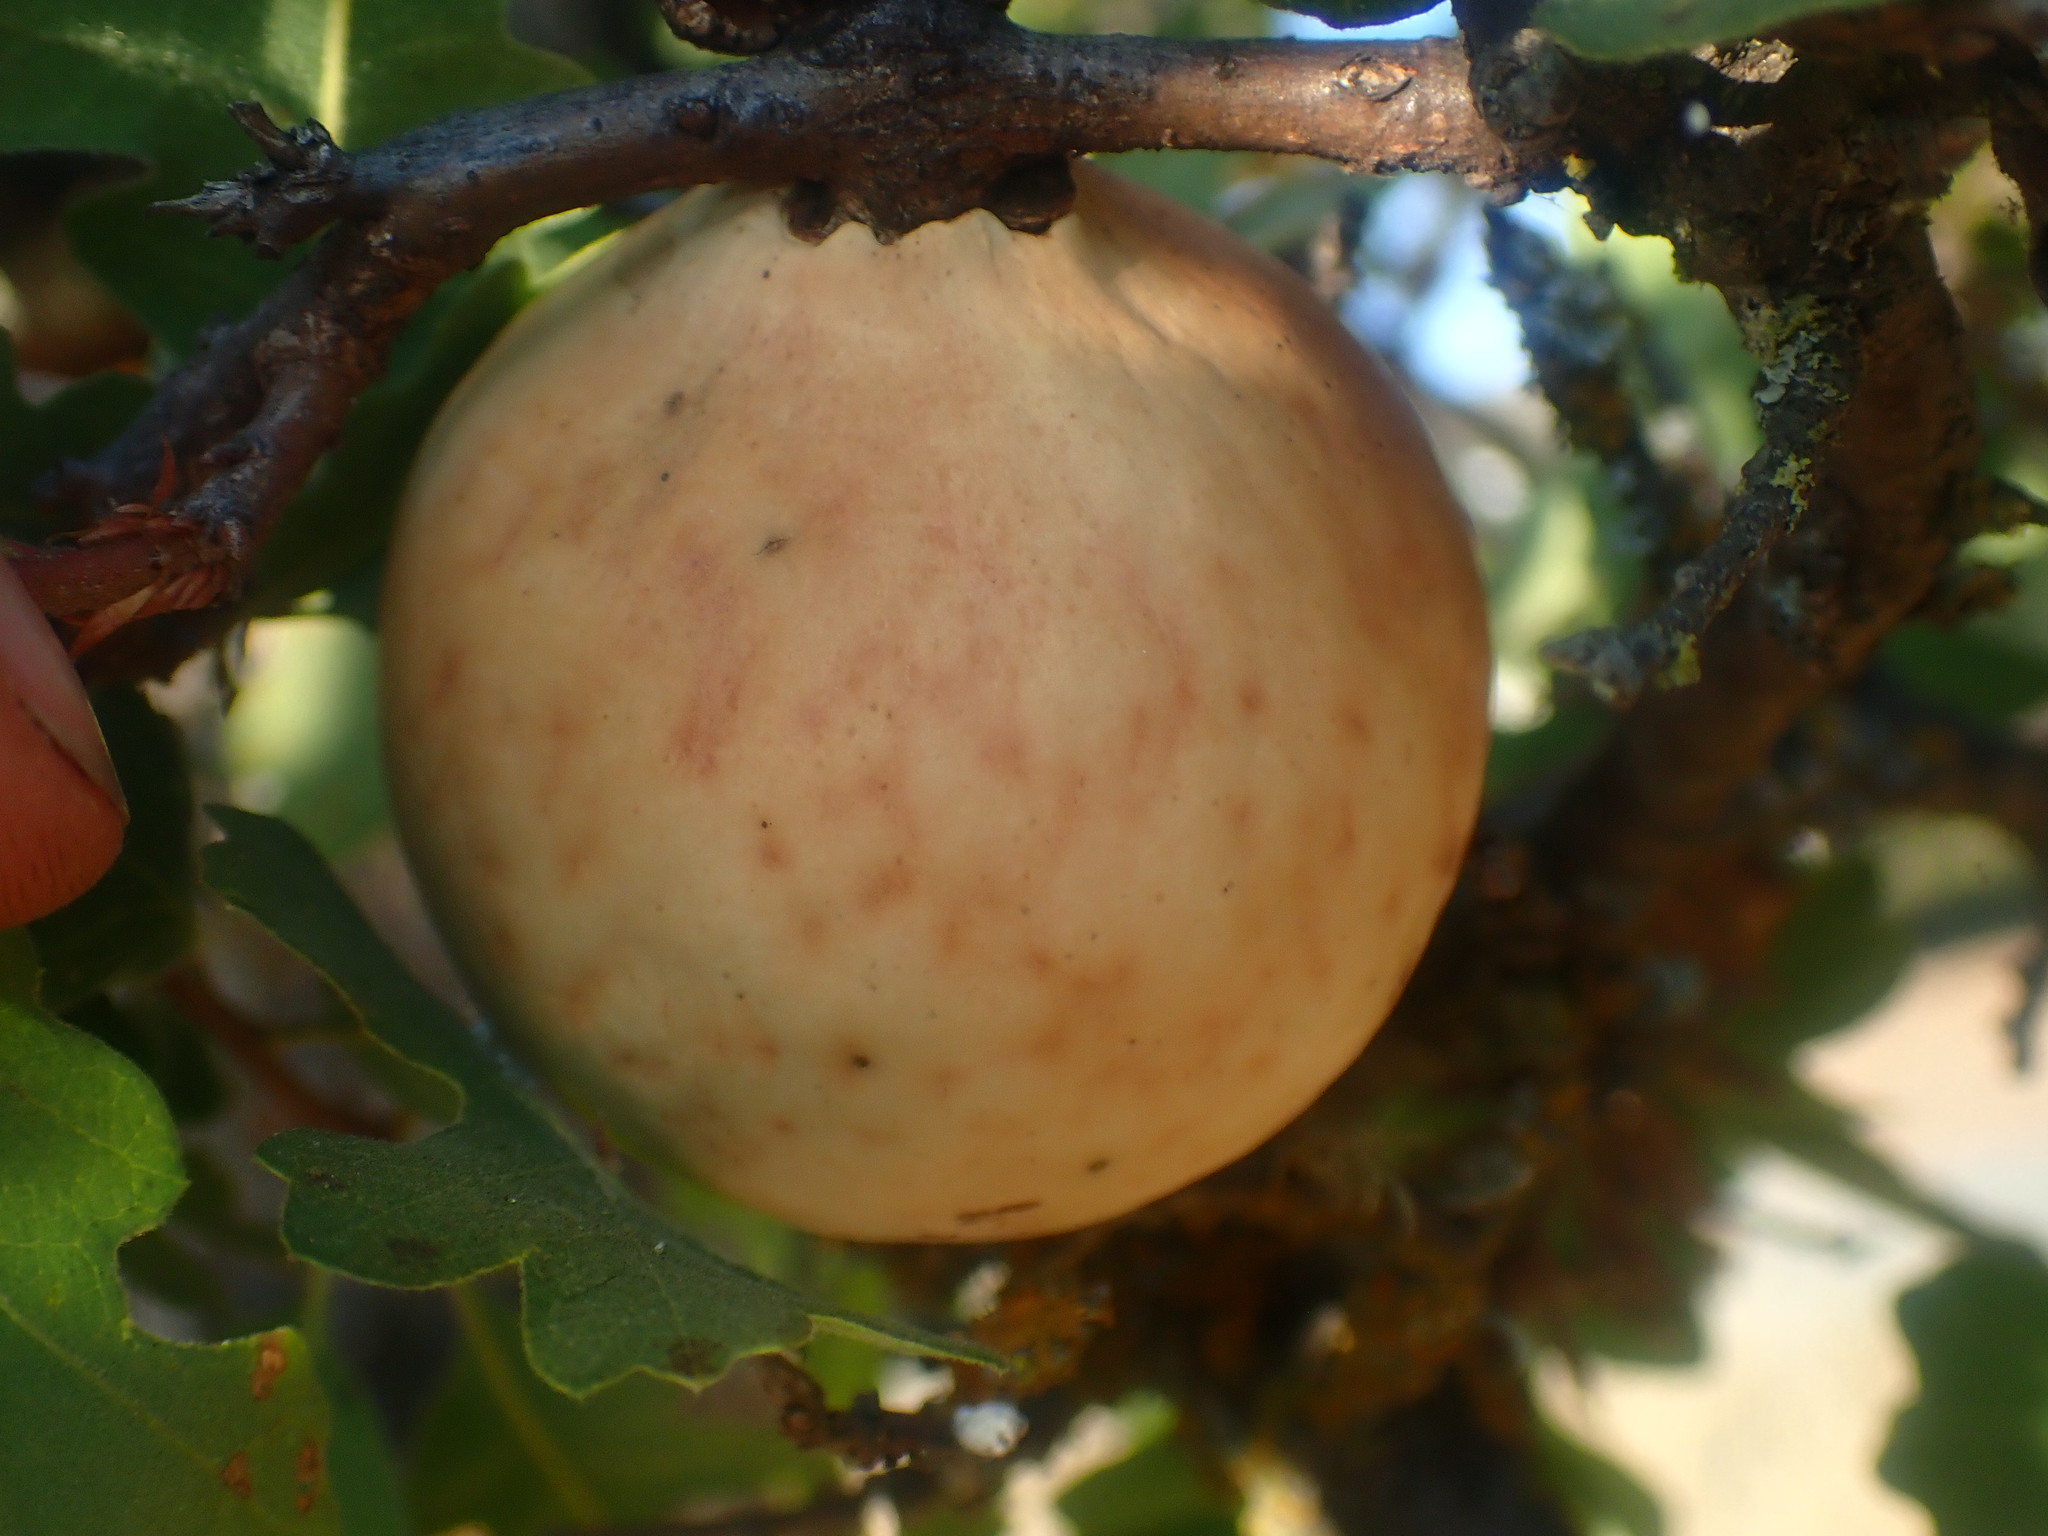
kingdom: Animalia
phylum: Arthropoda
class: Insecta
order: Hymenoptera
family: Cynipidae
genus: Andricus
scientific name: Andricus quercuscalifornicus
